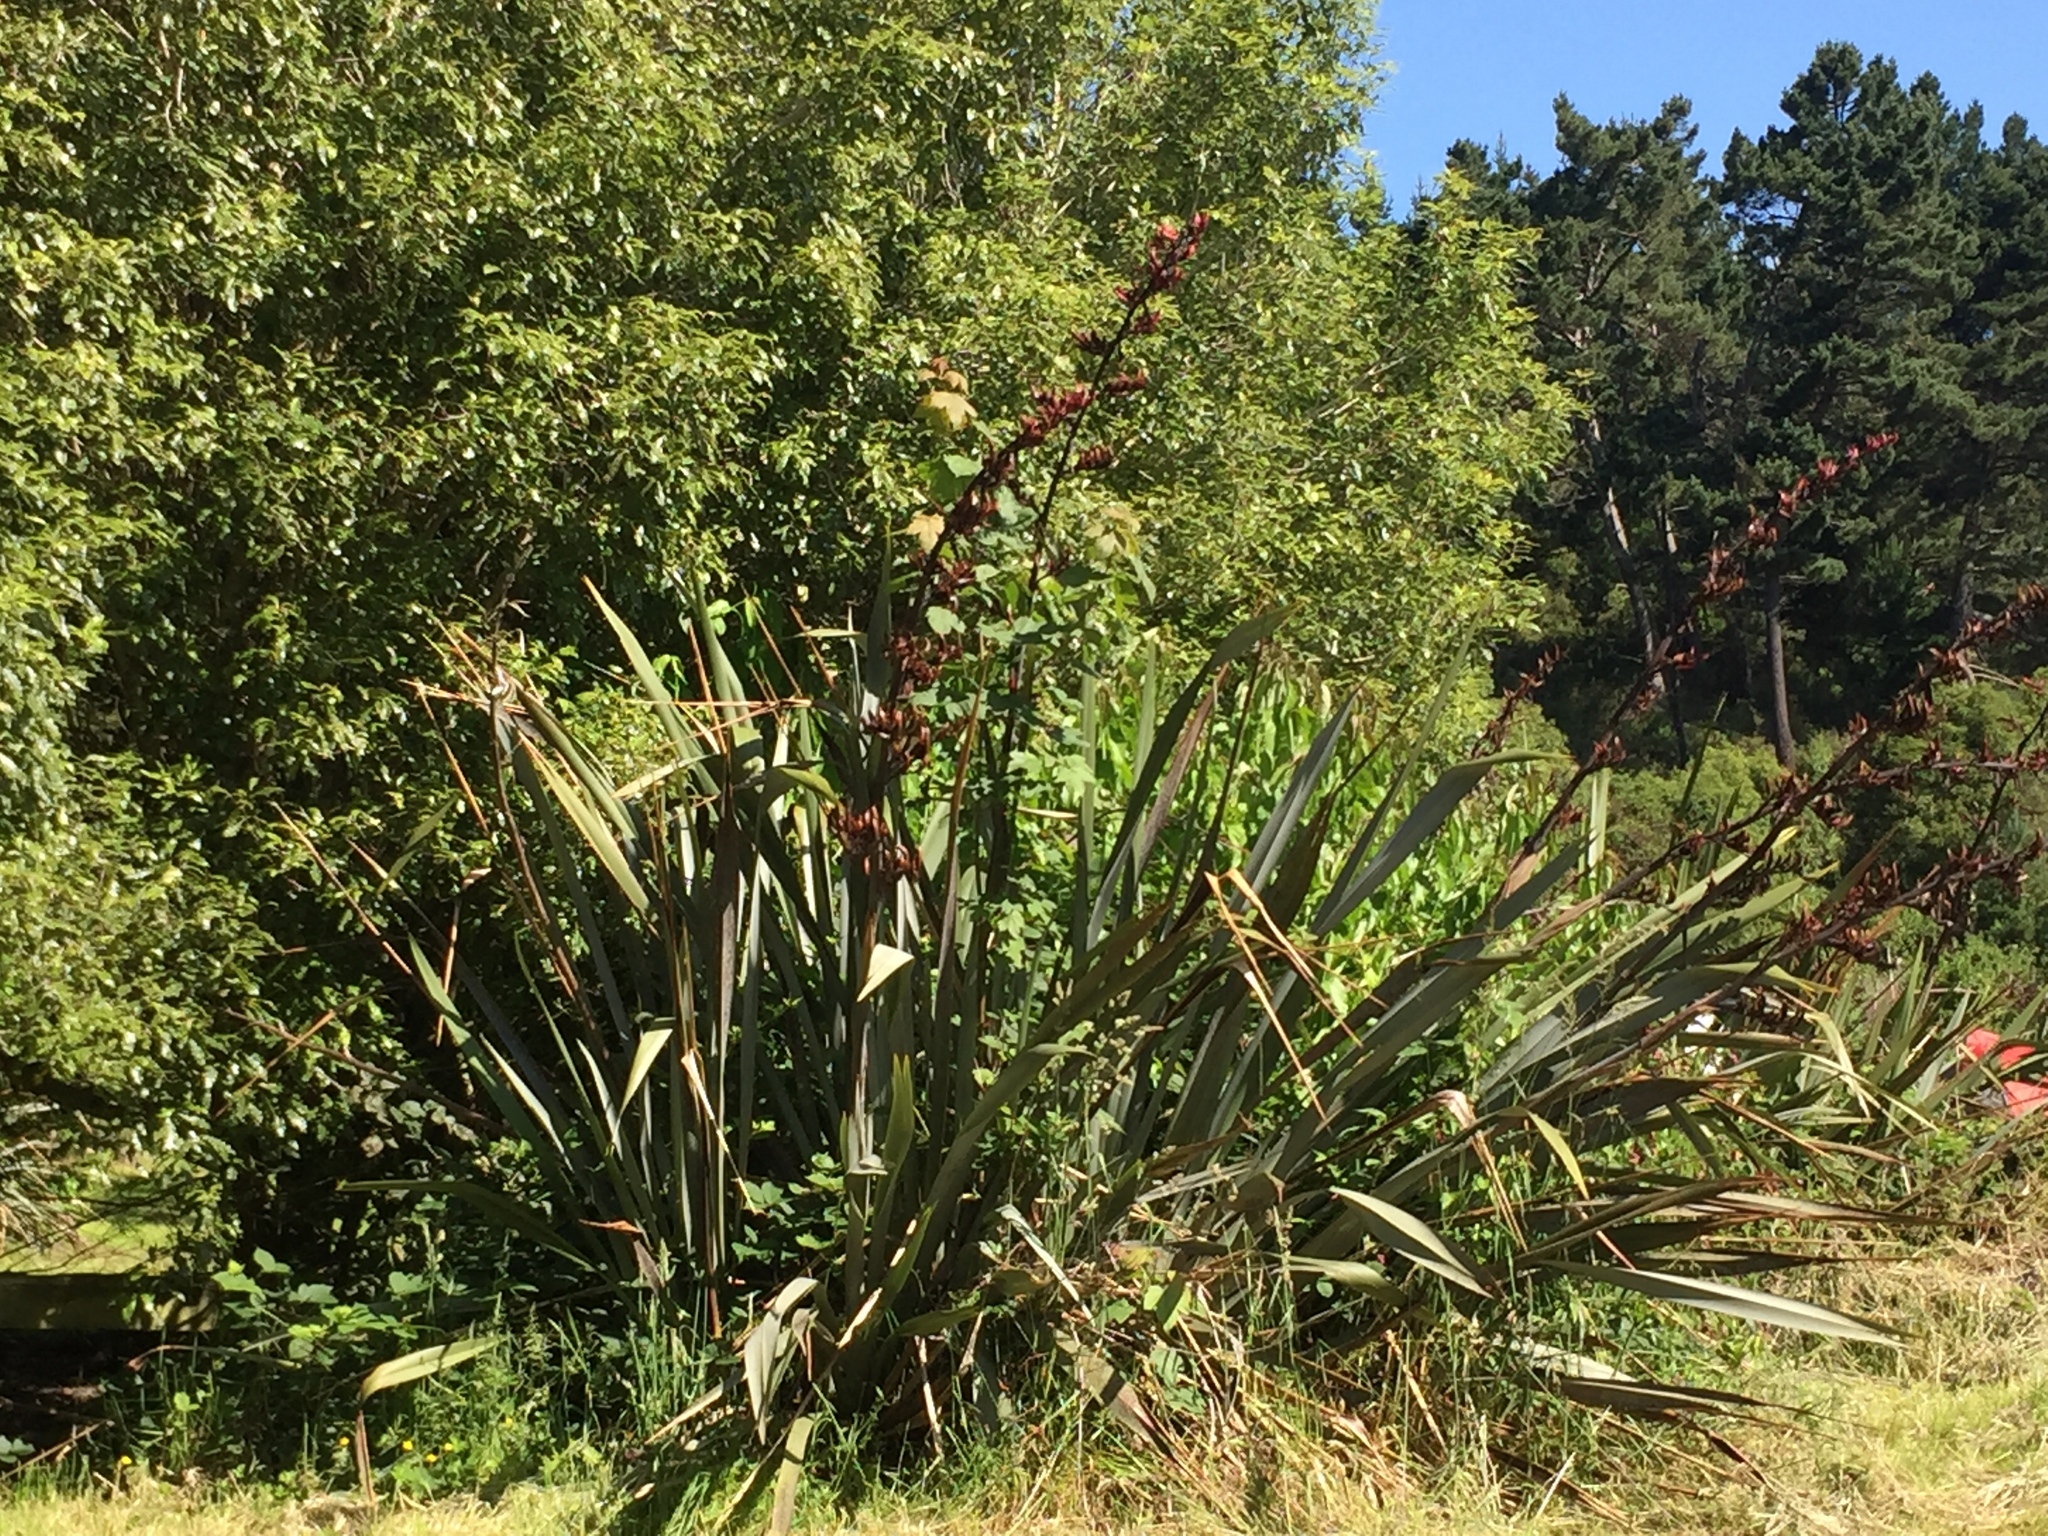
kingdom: Plantae
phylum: Tracheophyta
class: Liliopsida
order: Asparagales
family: Asphodelaceae
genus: Phormium
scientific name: Phormium tenax
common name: New zealand flax
